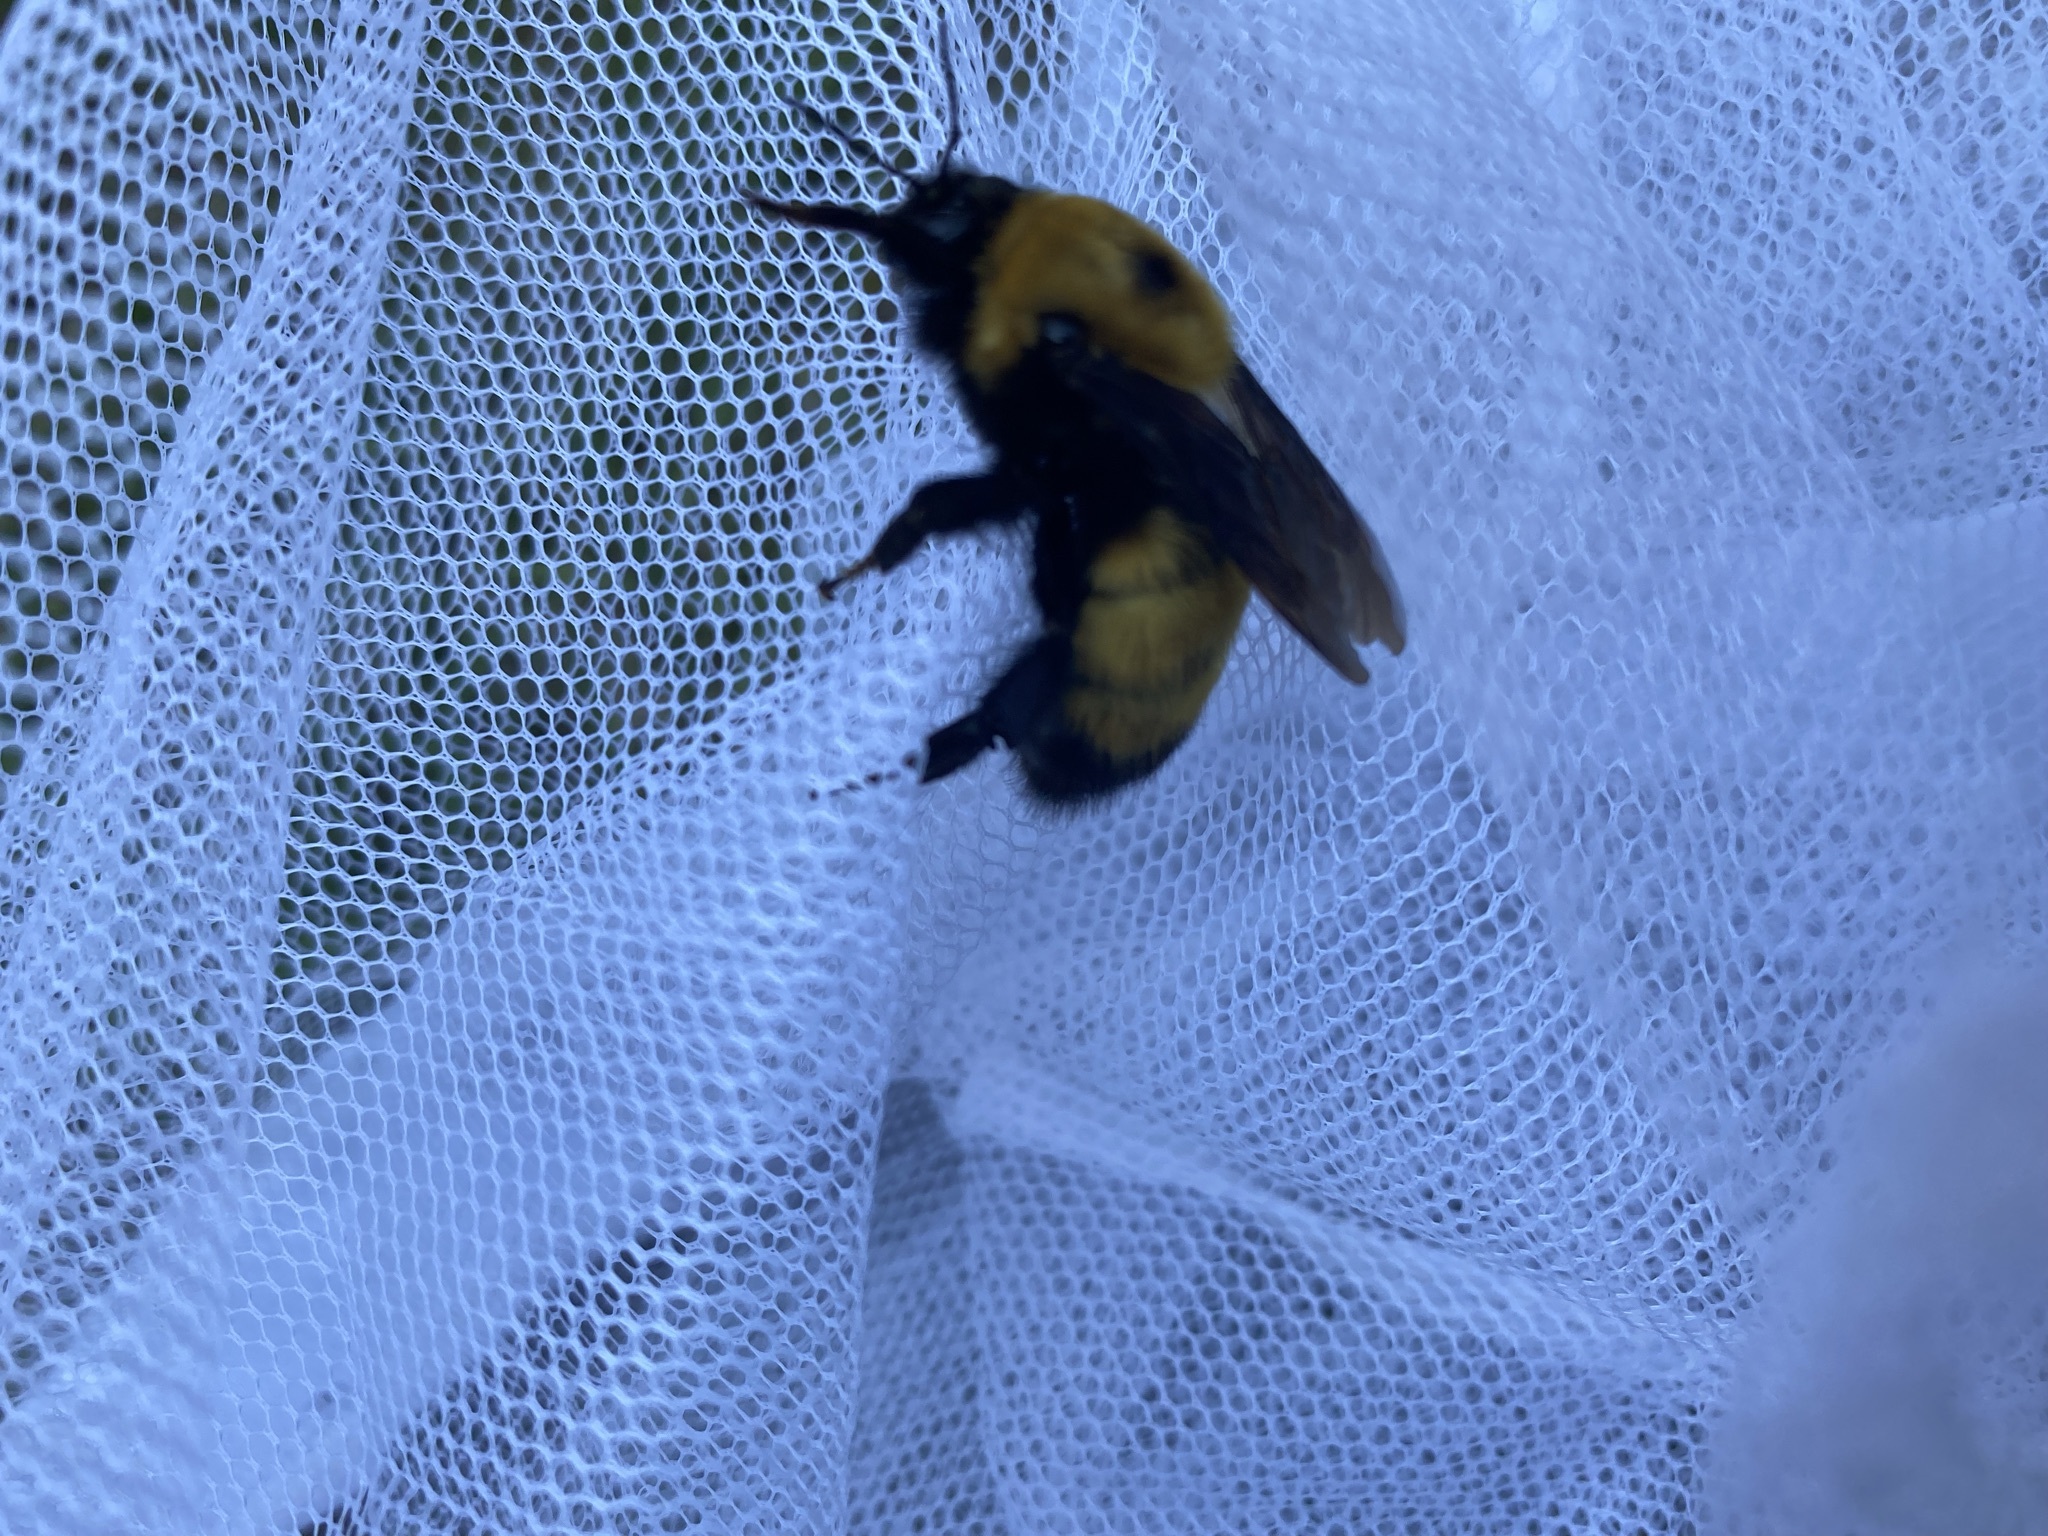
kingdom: Animalia
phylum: Arthropoda
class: Insecta
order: Hymenoptera
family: Apidae
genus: Bombus
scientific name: Bombus nevadensis
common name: Nevada bumble bee
